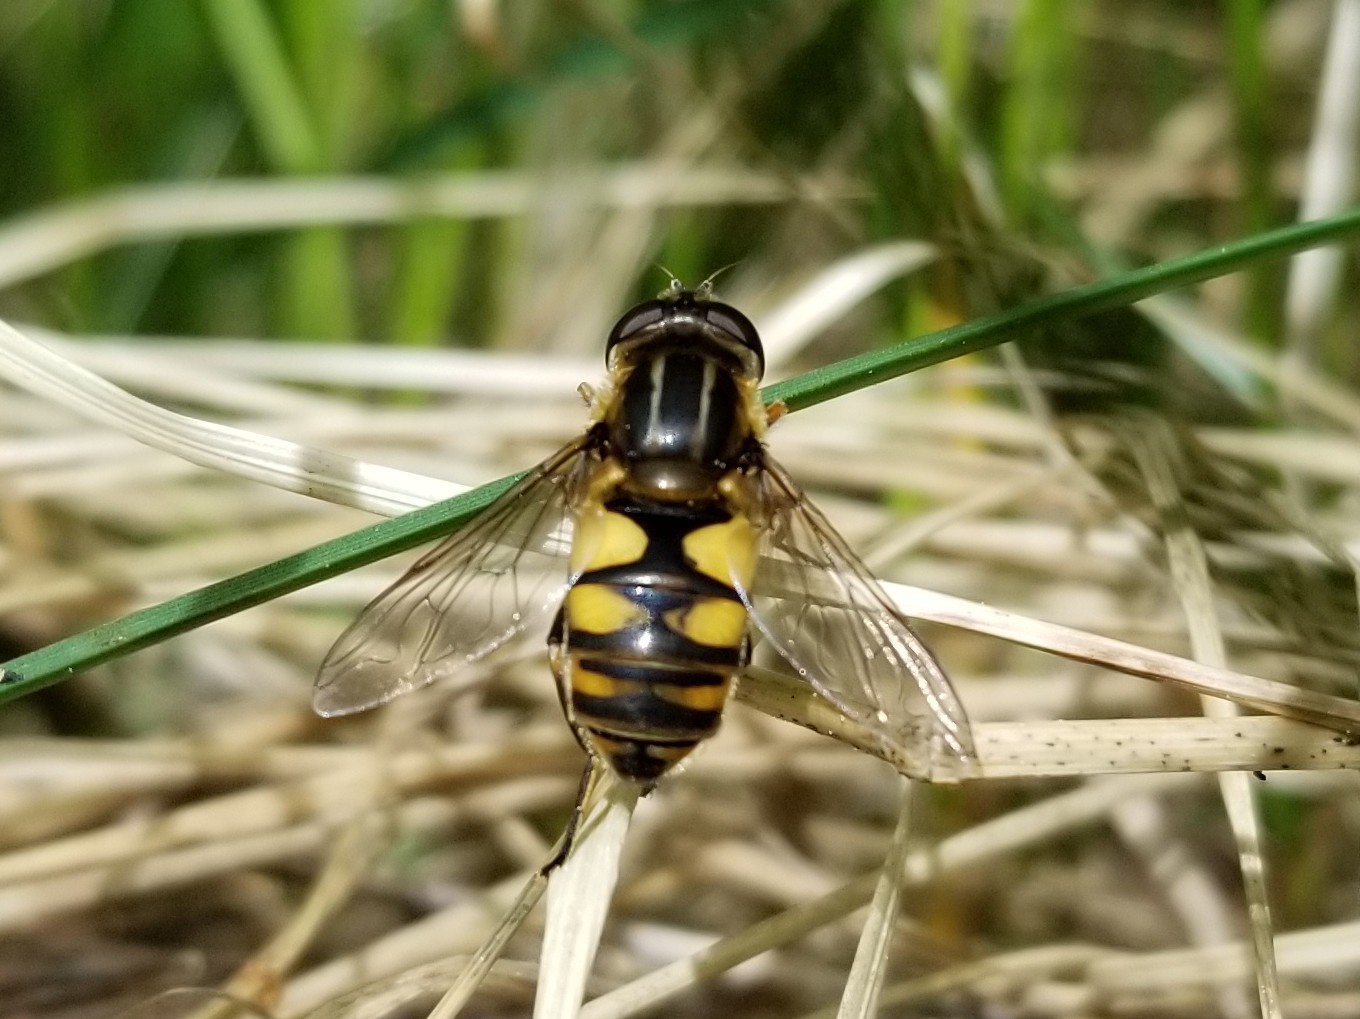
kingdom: Animalia
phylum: Arthropoda
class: Insecta
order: Diptera
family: Syrphidae
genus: Helophilus
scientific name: Helophilus hybridus
